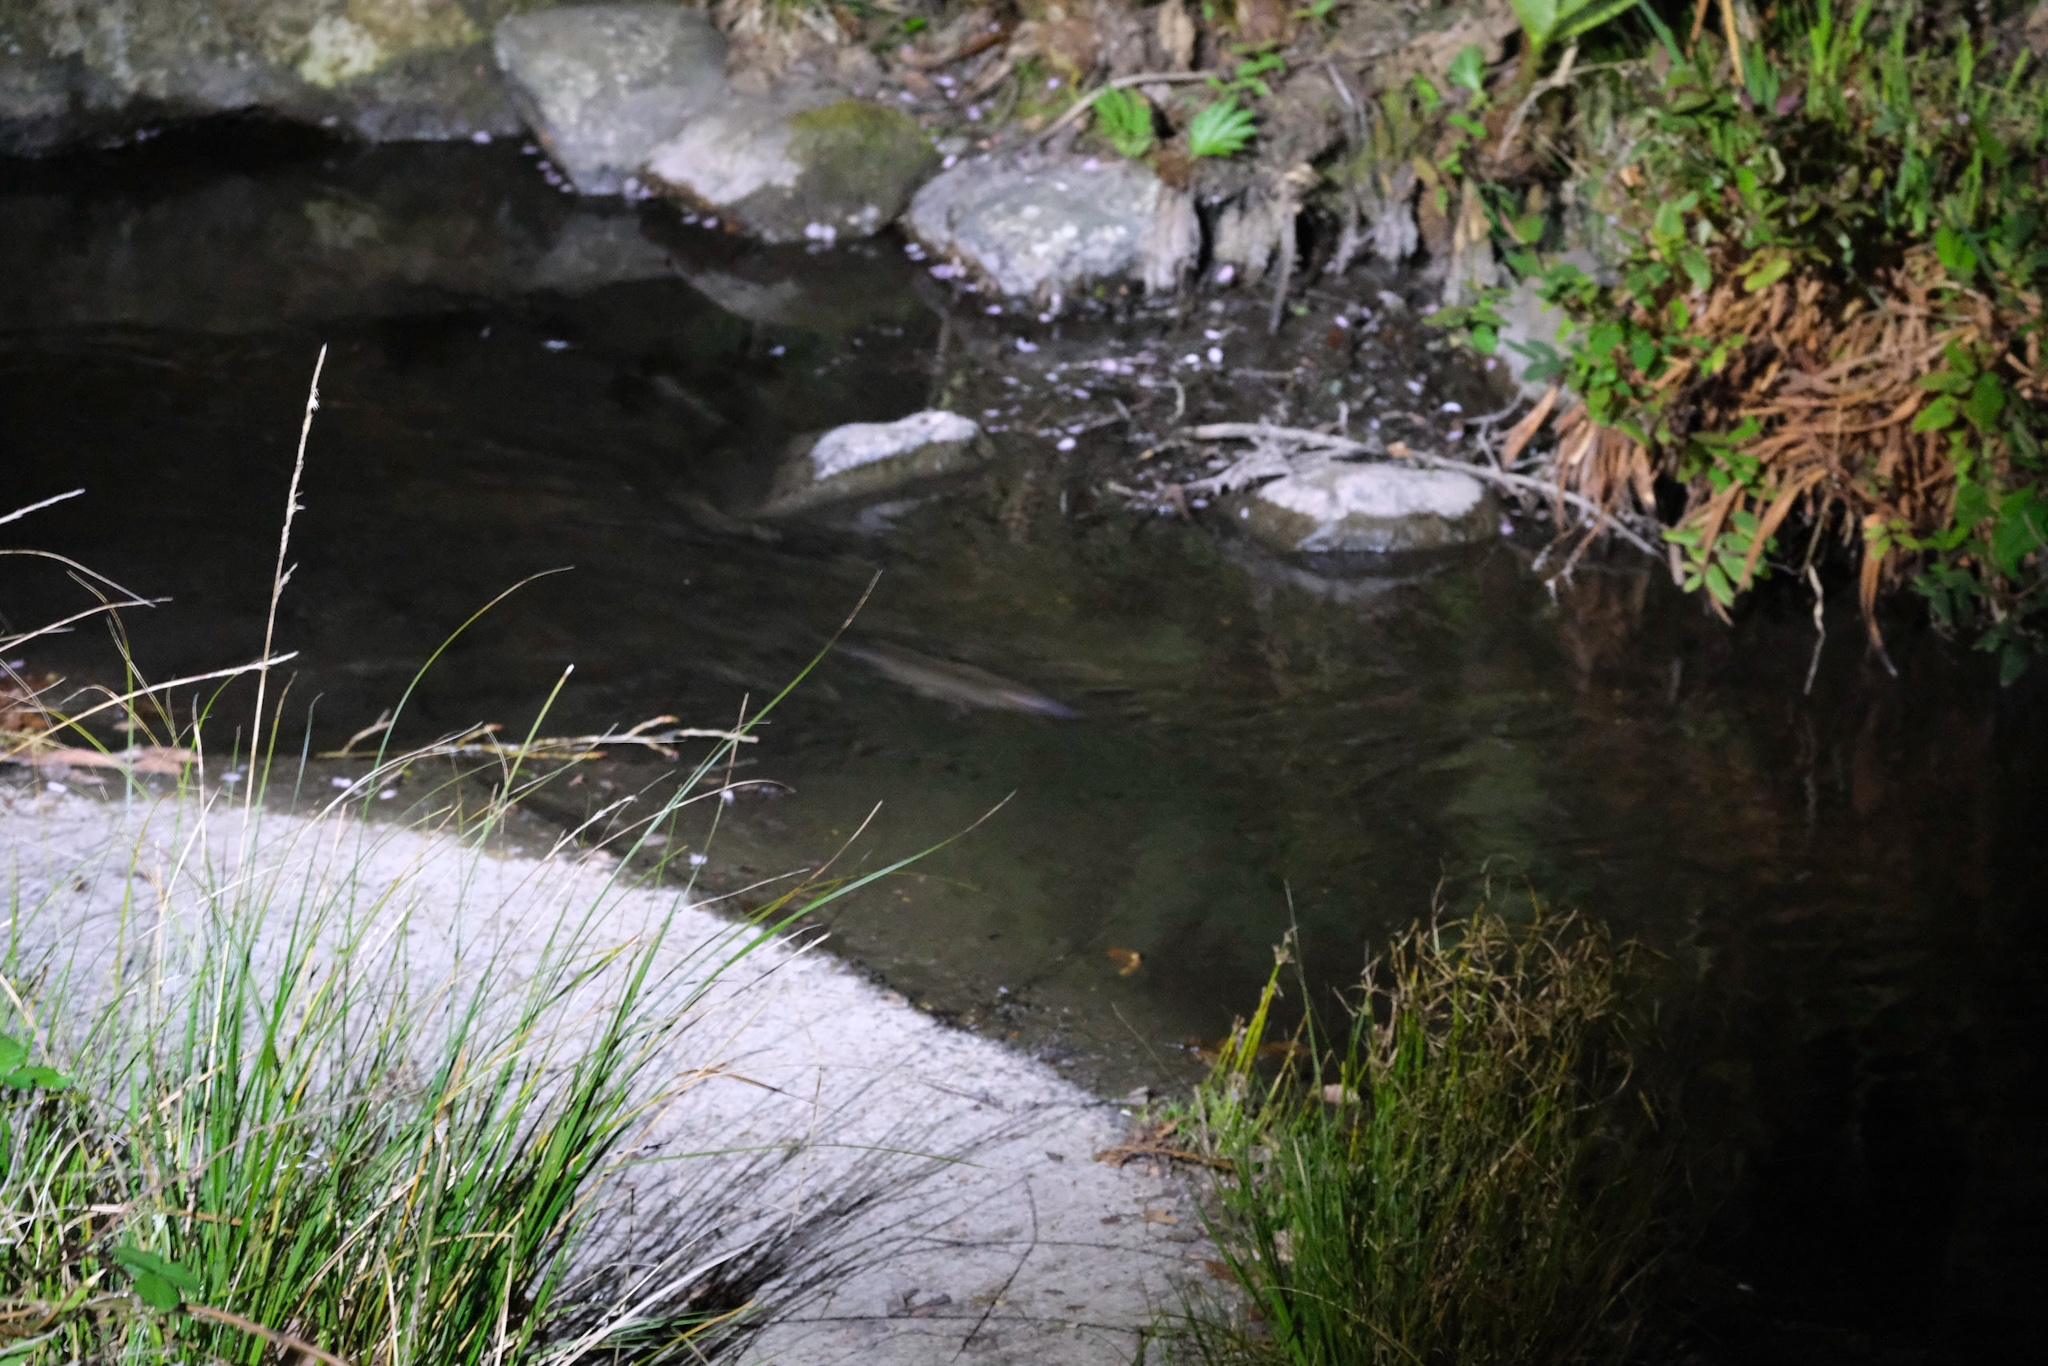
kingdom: Animalia
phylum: Chordata
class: Mammalia
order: Monotremata
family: Ornithorhynchidae
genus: Ornithorhynchus
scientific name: Ornithorhynchus anatinus
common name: Platypus
